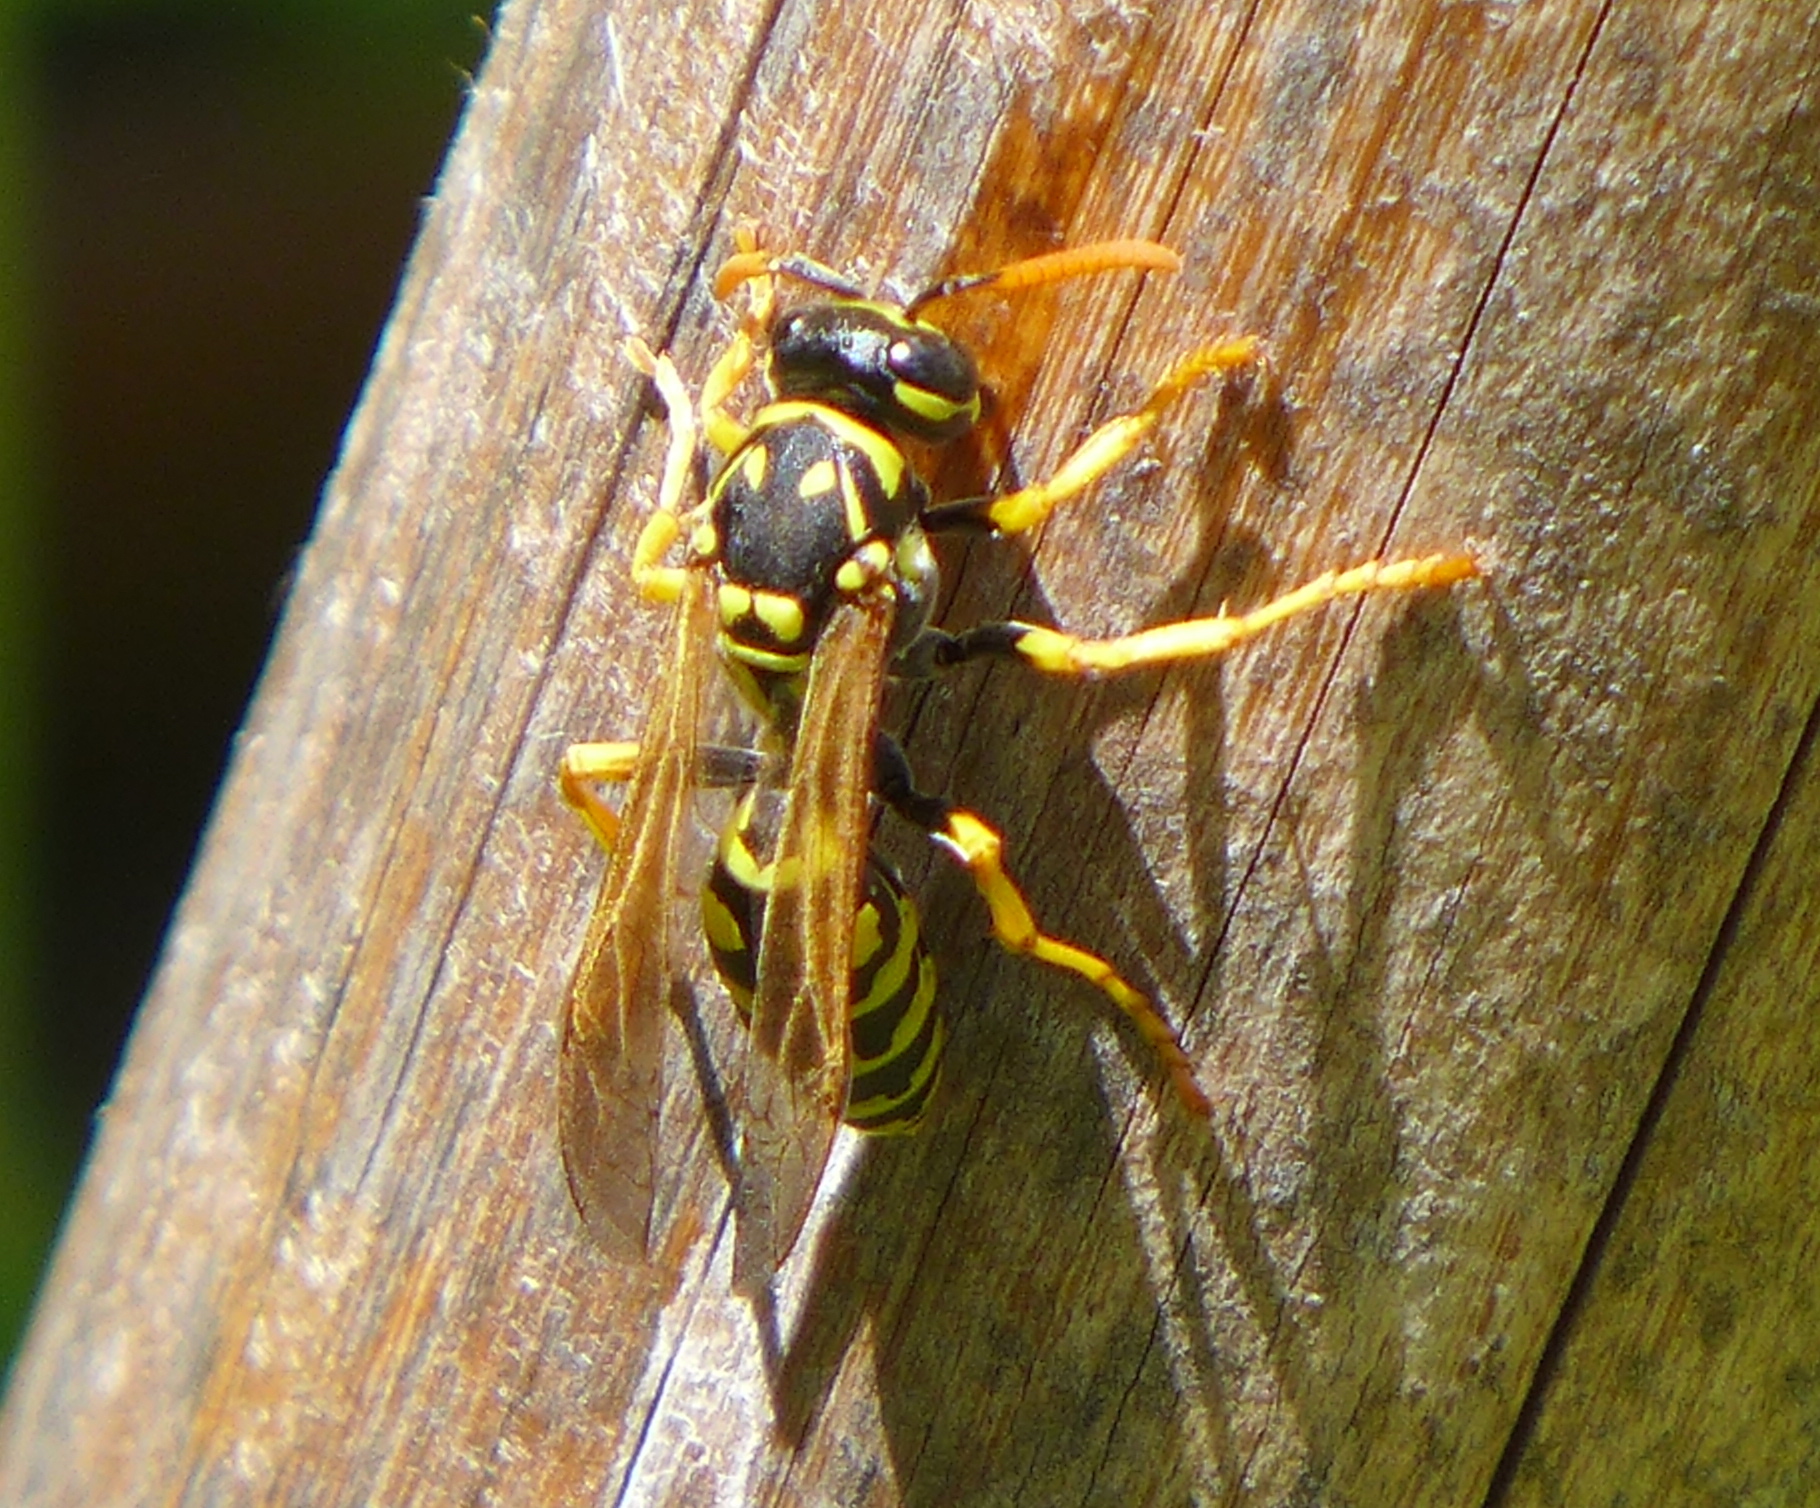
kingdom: Animalia
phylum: Arthropoda
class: Insecta
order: Hymenoptera
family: Eumenidae
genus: Polistes
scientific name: Polistes dominula
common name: Paper wasp
